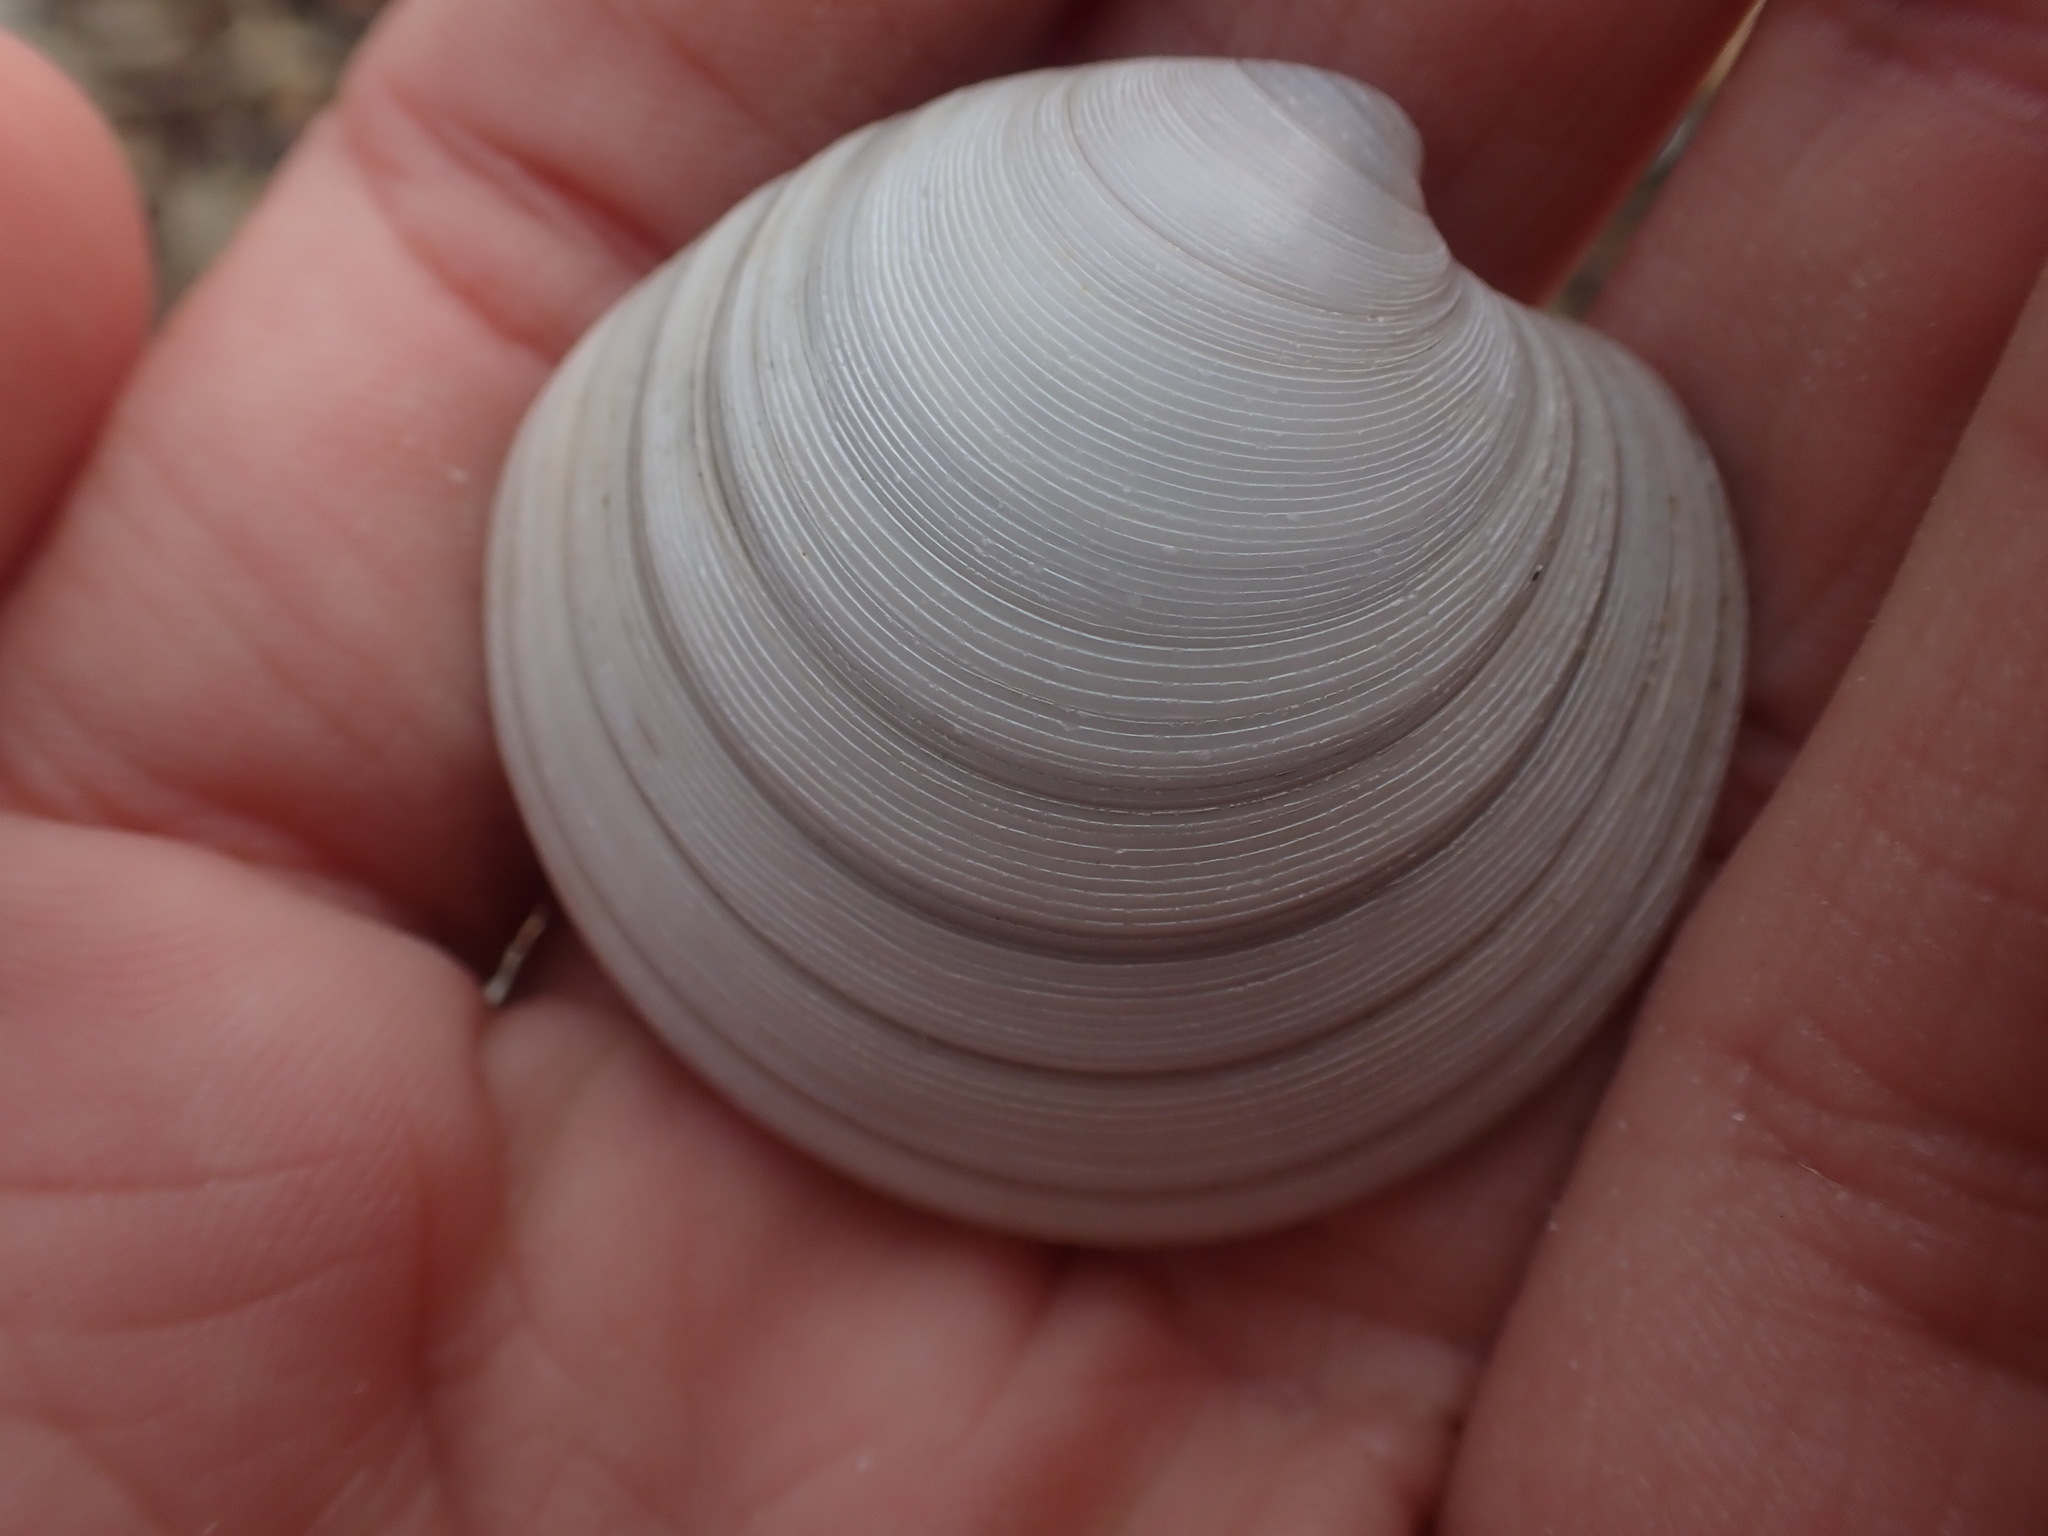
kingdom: Animalia
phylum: Mollusca
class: Bivalvia
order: Venerida
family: Veneridae
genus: Dosinia
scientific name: Dosinia subrosea
